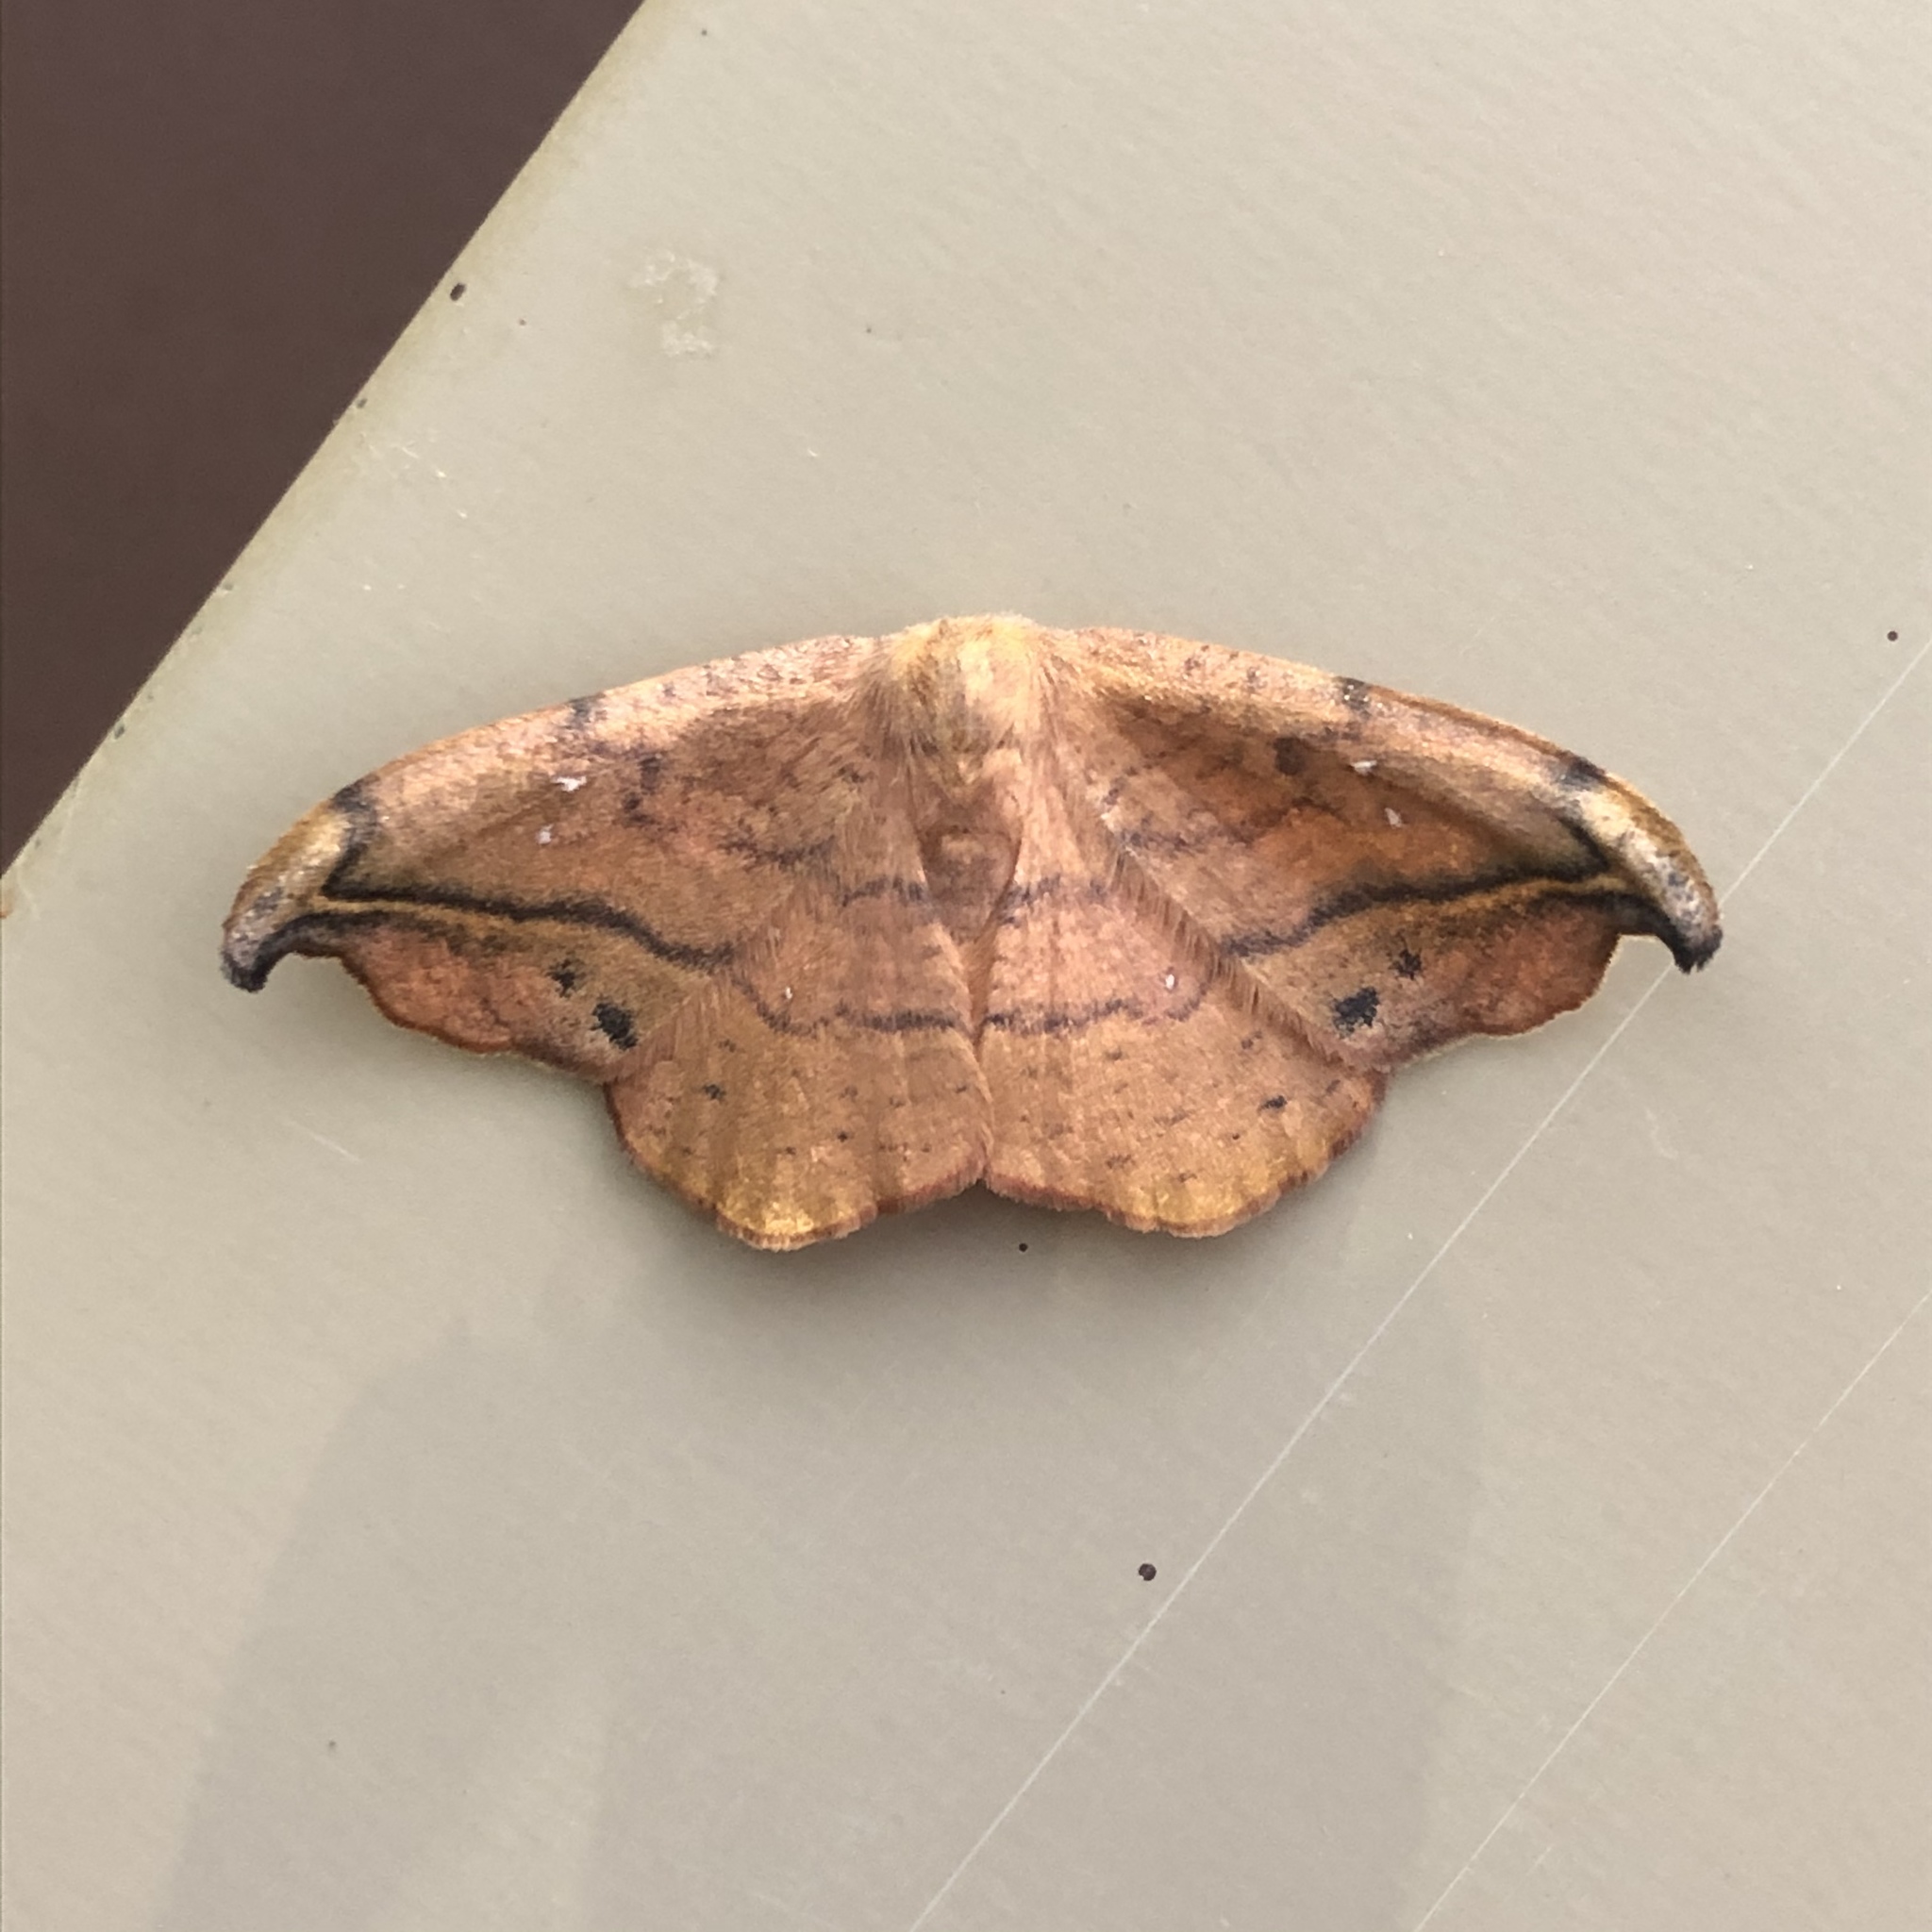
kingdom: Animalia
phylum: Arthropoda
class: Insecta
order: Lepidoptera
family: Drepanidae
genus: Oreta
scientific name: Oreta rosea
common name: Rose hooktip
